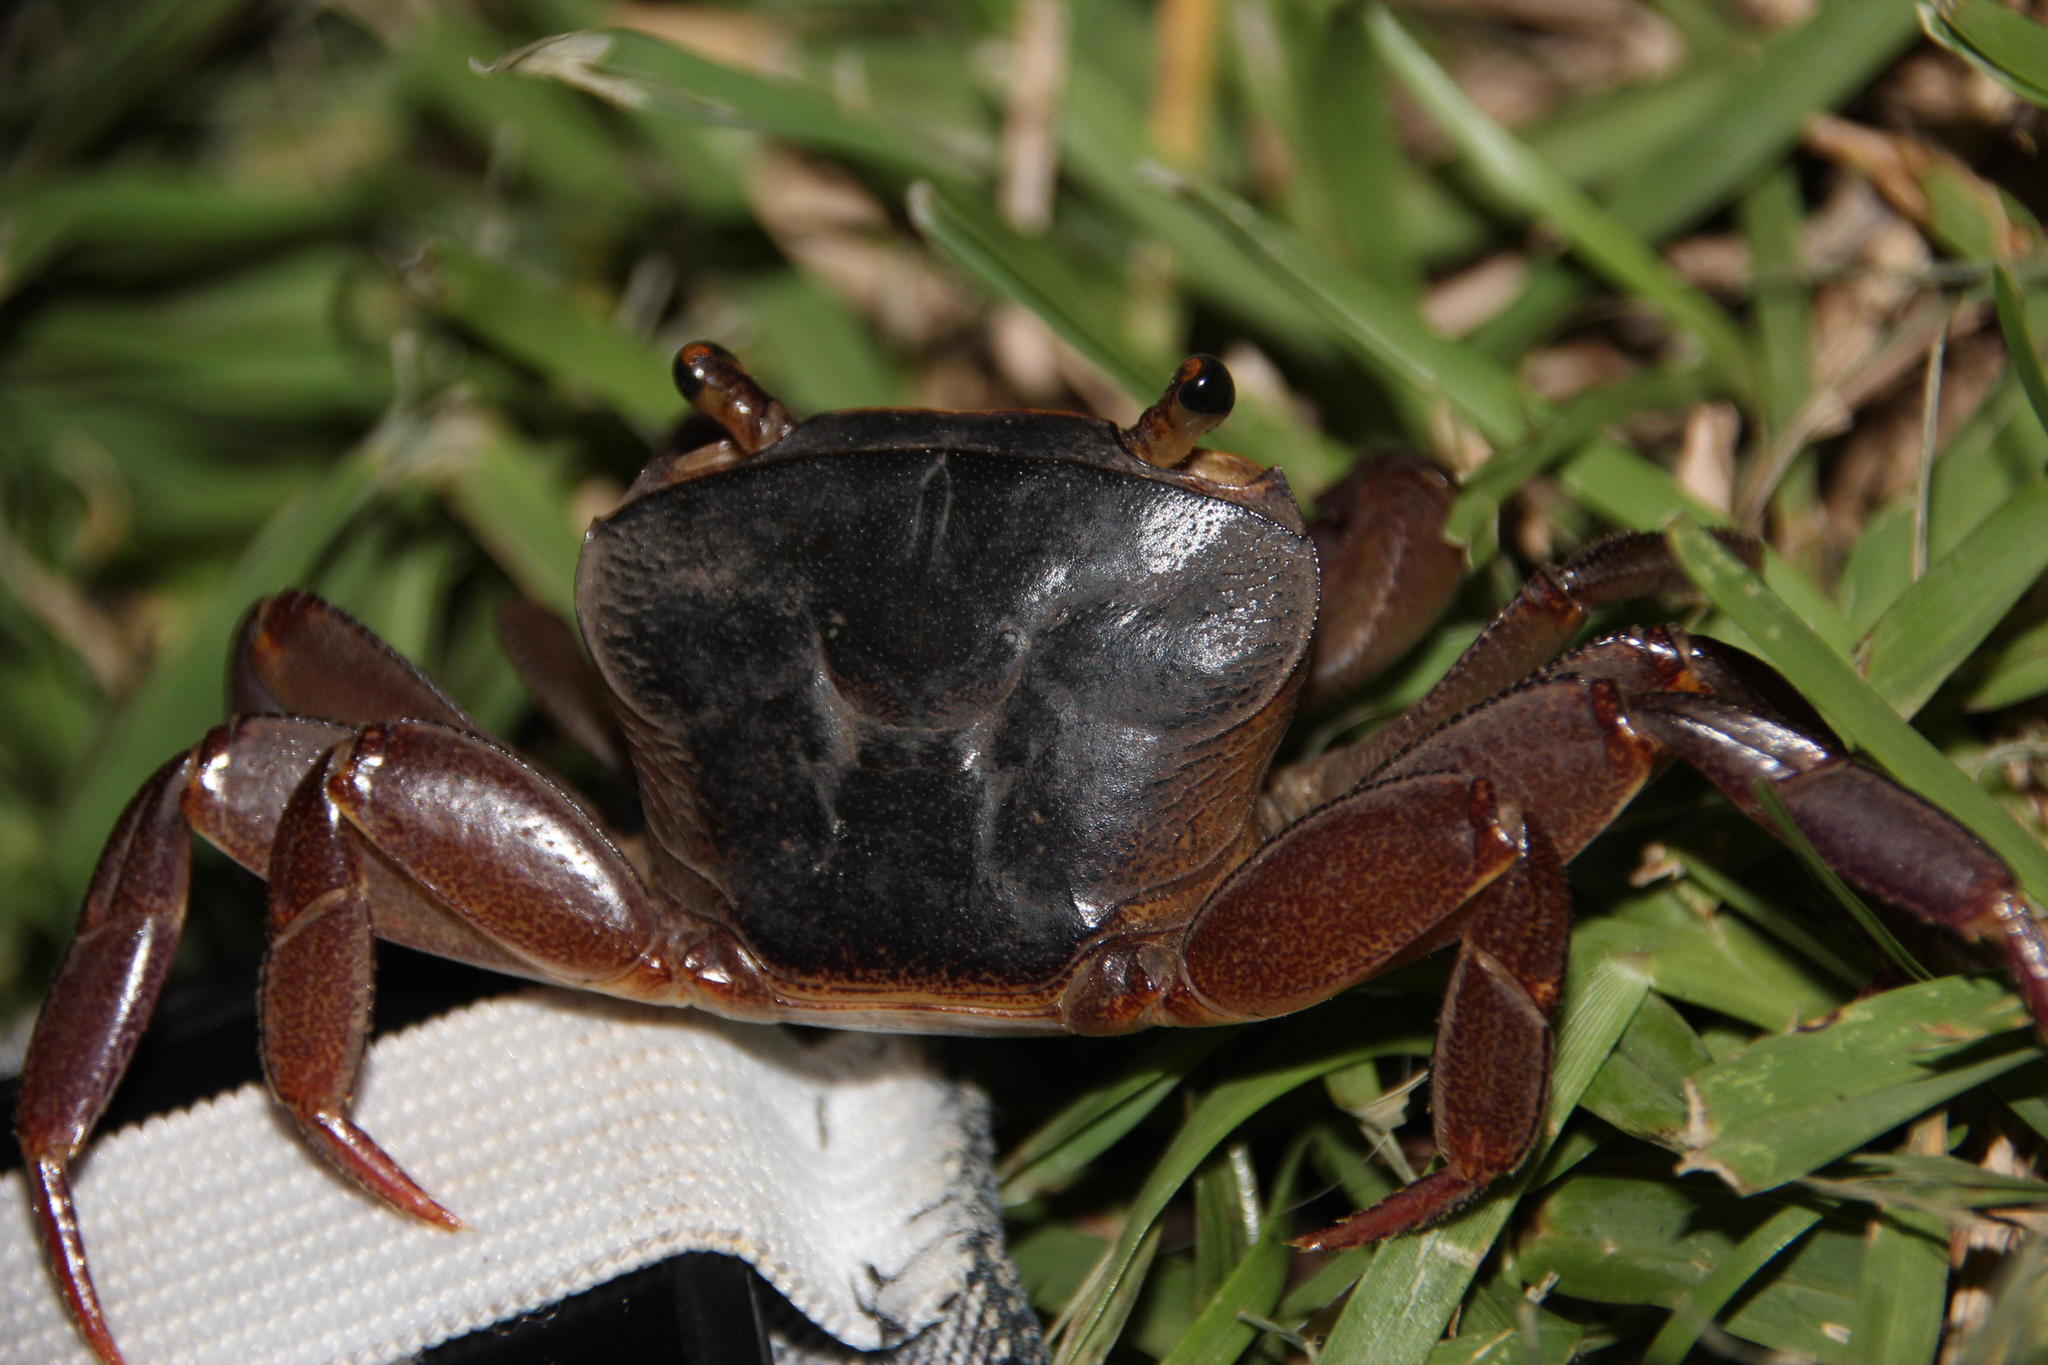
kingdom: Animalia
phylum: Arthropoda
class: Malacostraca
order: Decapoda
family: Potamonautidae
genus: Potamonautes
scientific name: Potamonautes danielsi
